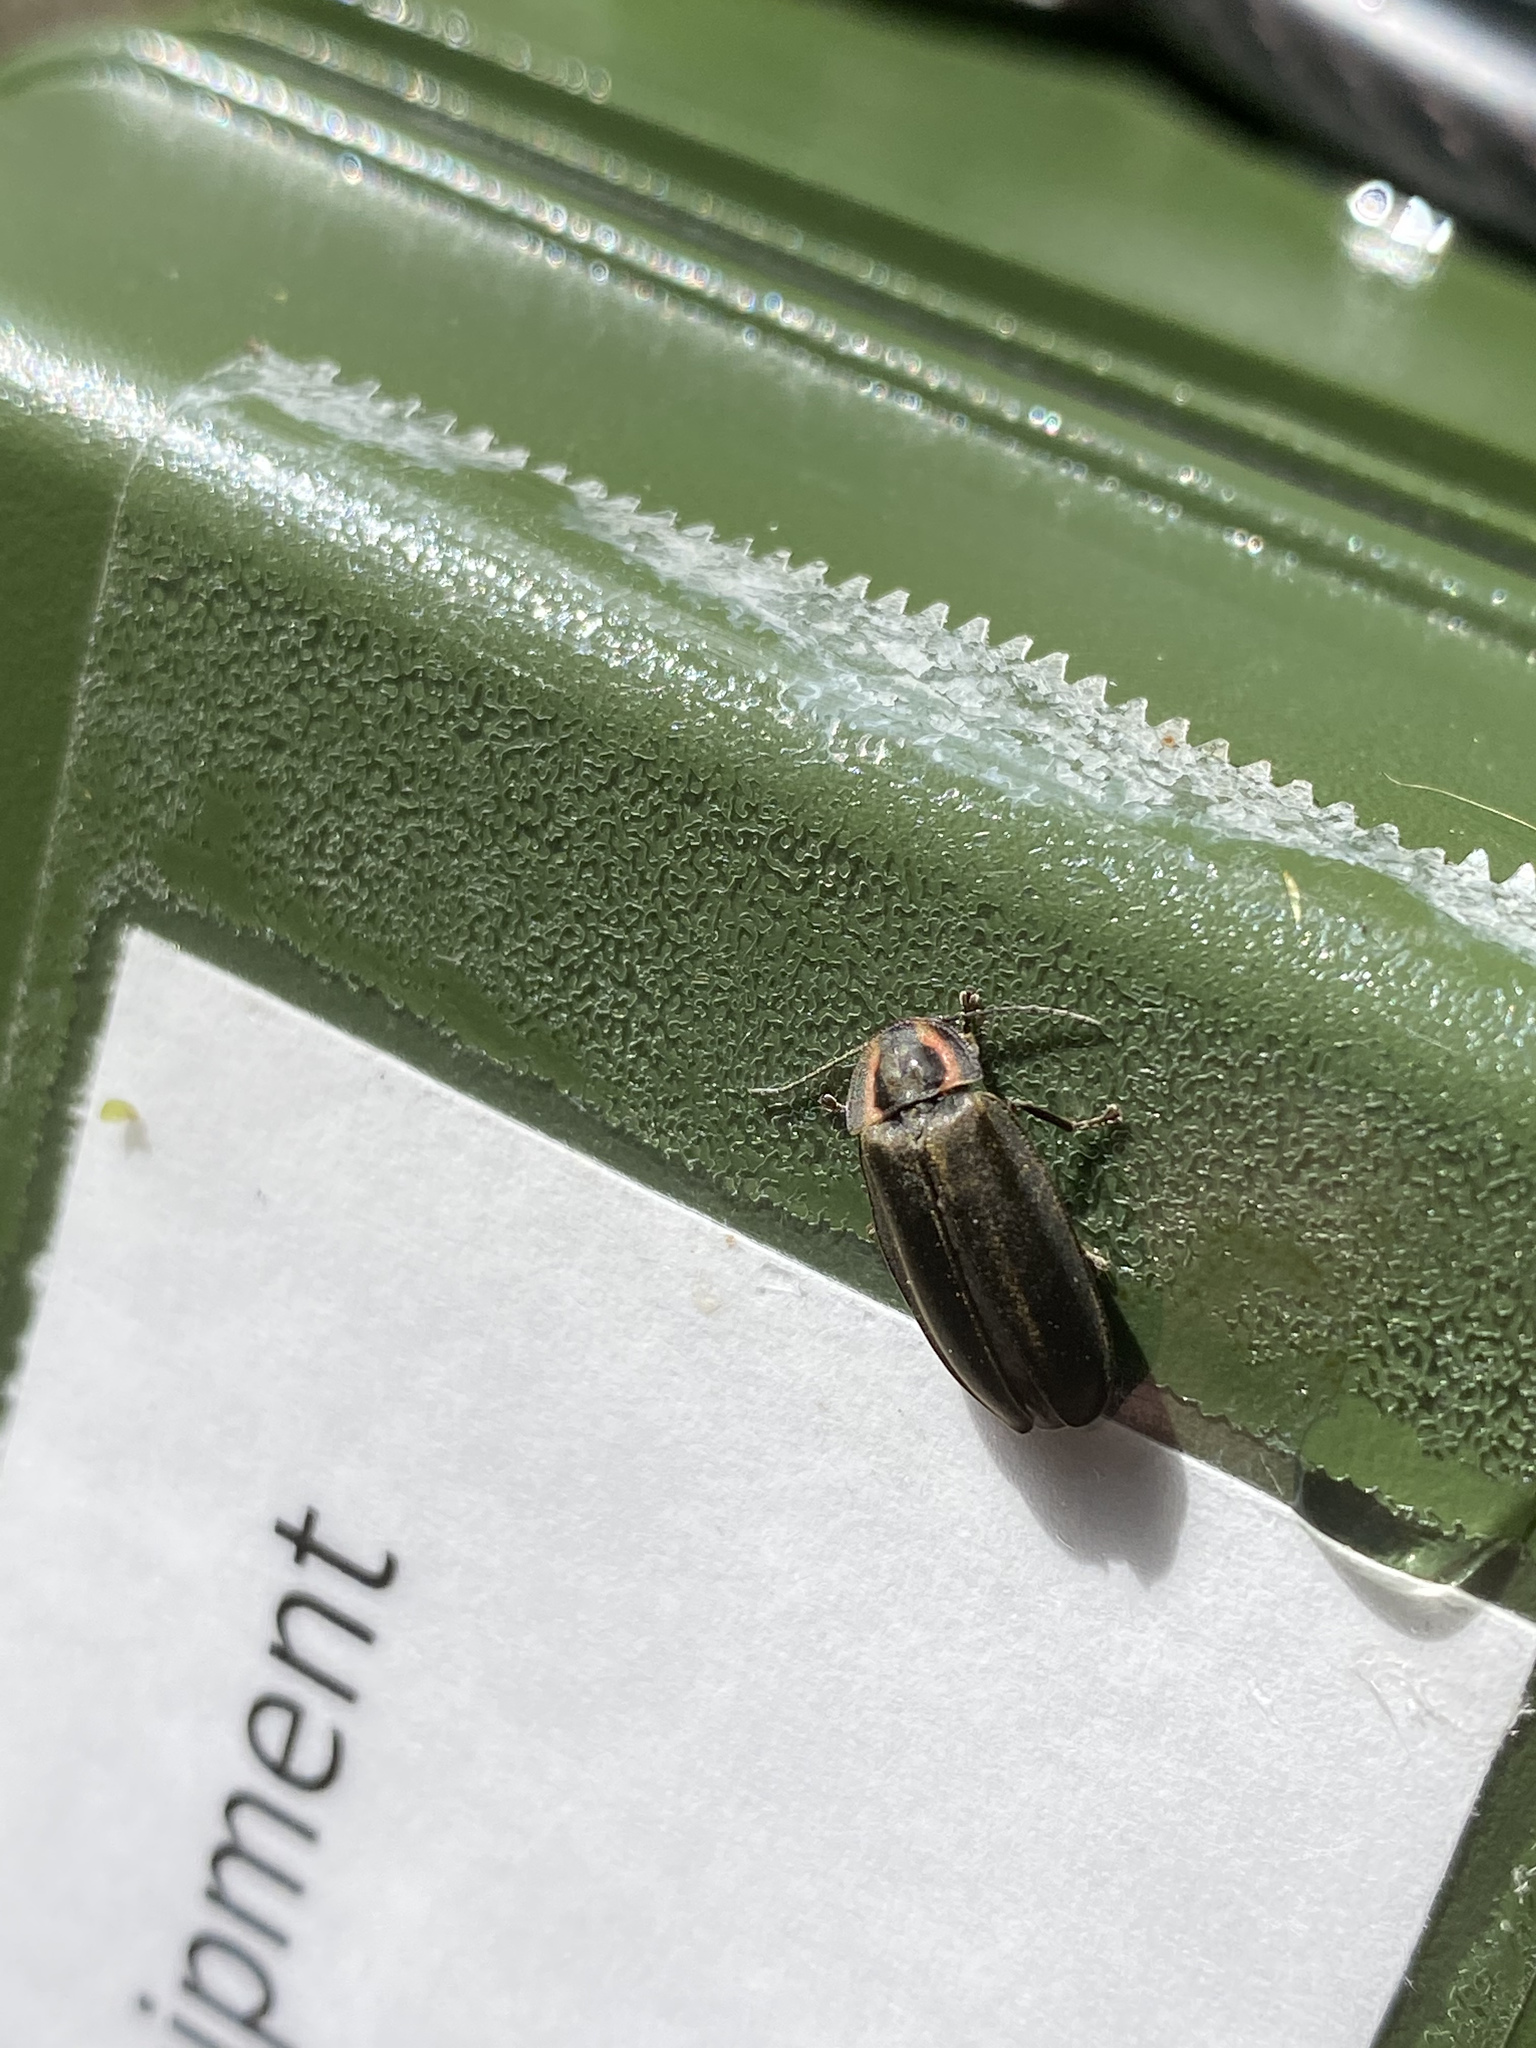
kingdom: Animalia
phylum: Arthropoda
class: Insecta
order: Coleoptera
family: Lampyridae
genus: Photinus
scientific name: Photinus corrusca
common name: Winter firefly
